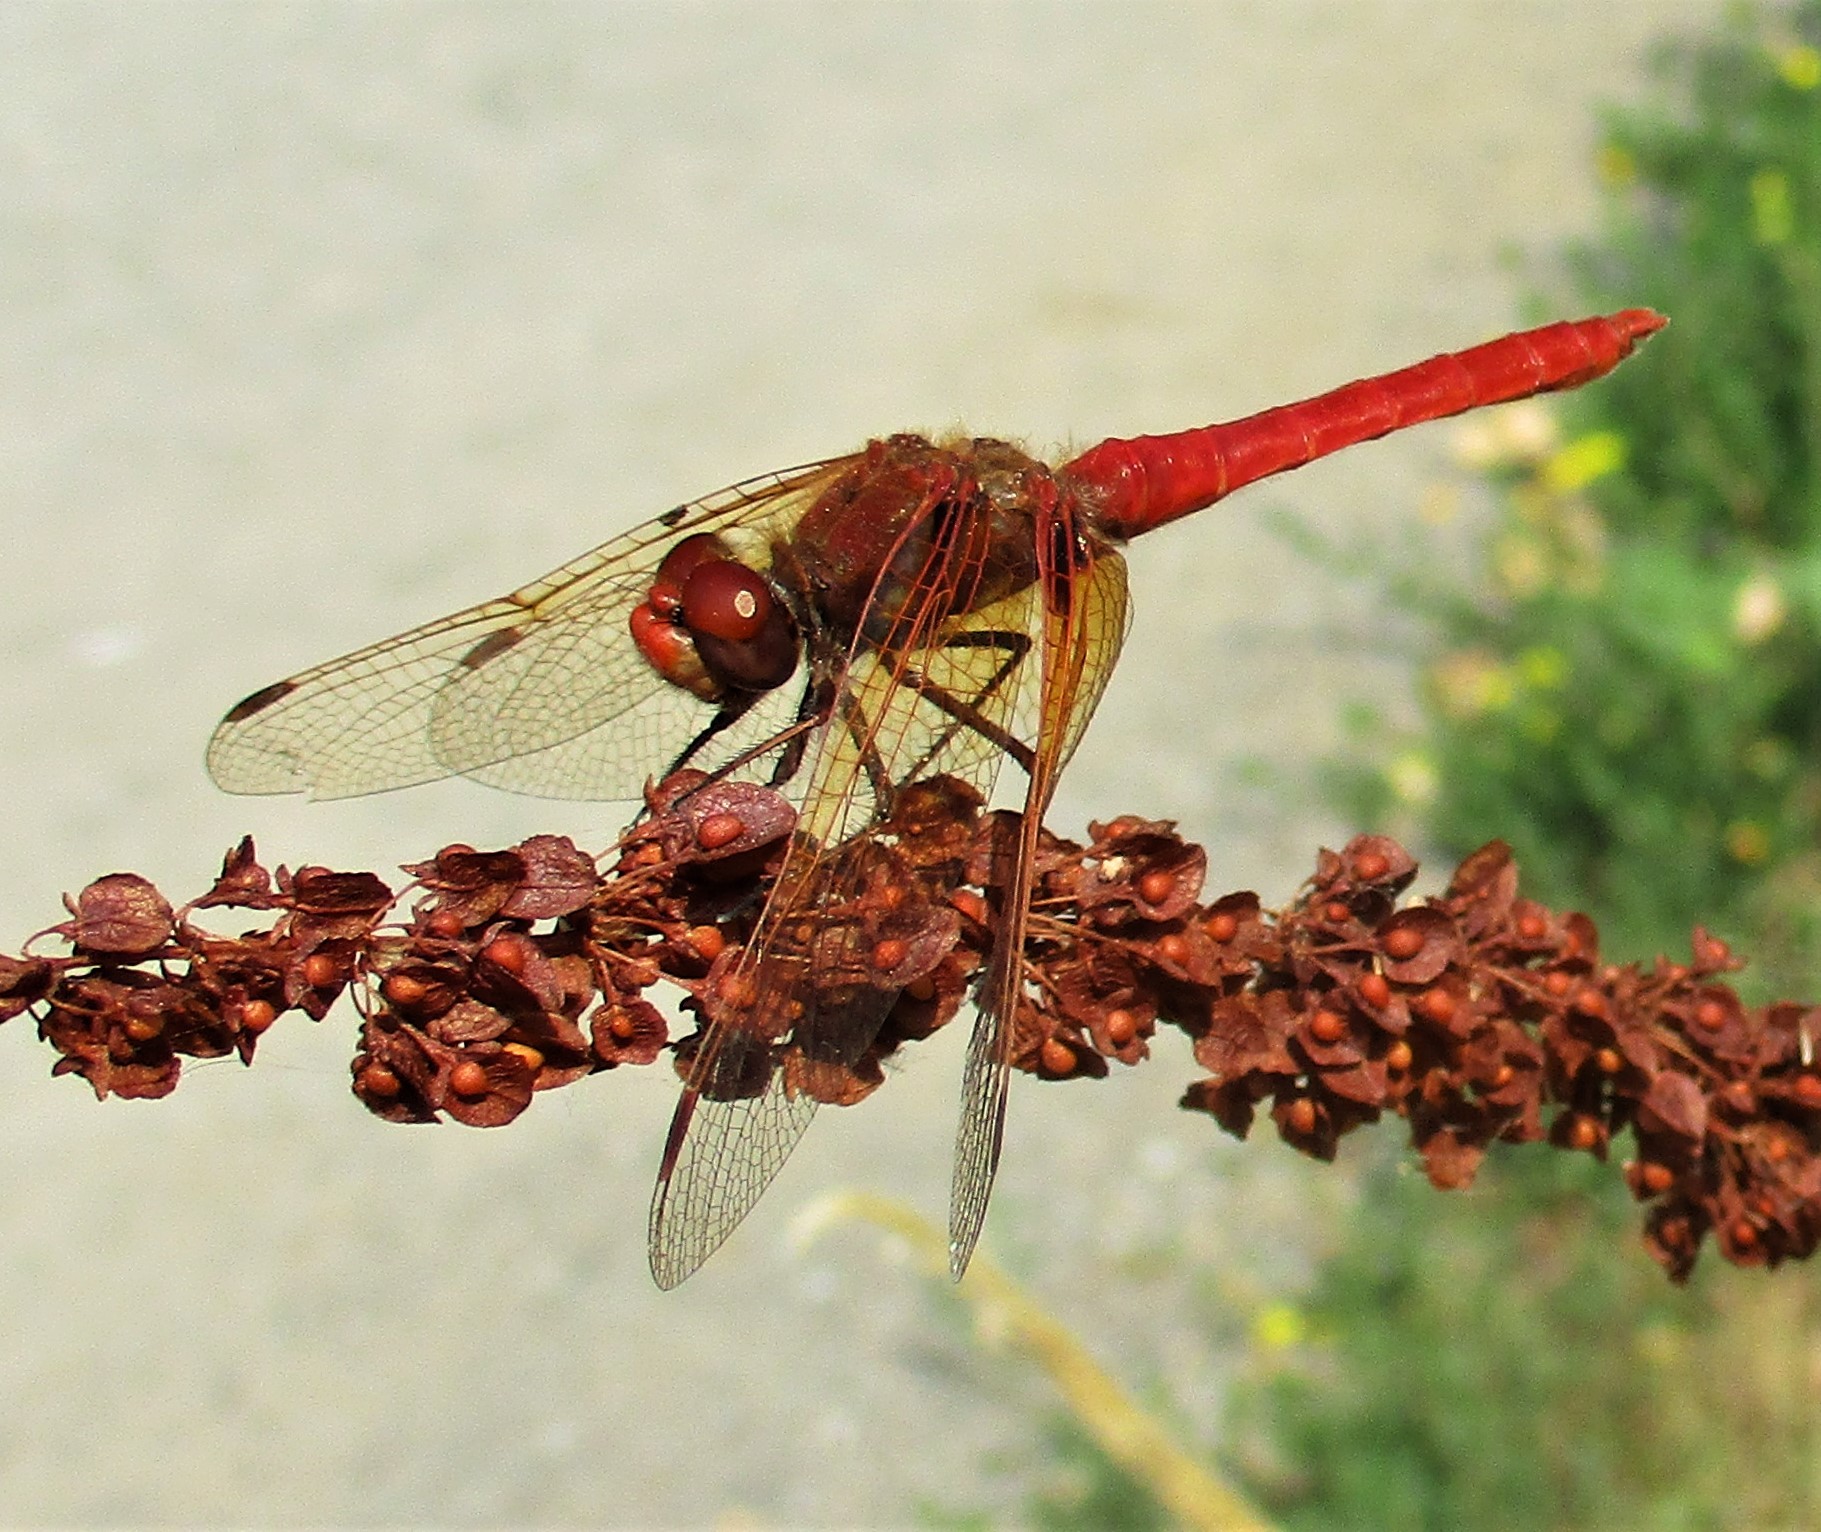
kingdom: Animalia
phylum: Arthropoda
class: Insecta
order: Odonata
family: Libellulidae
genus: Sympetrum
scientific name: Sympetrum illotum
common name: Cardinal meadowhawk
